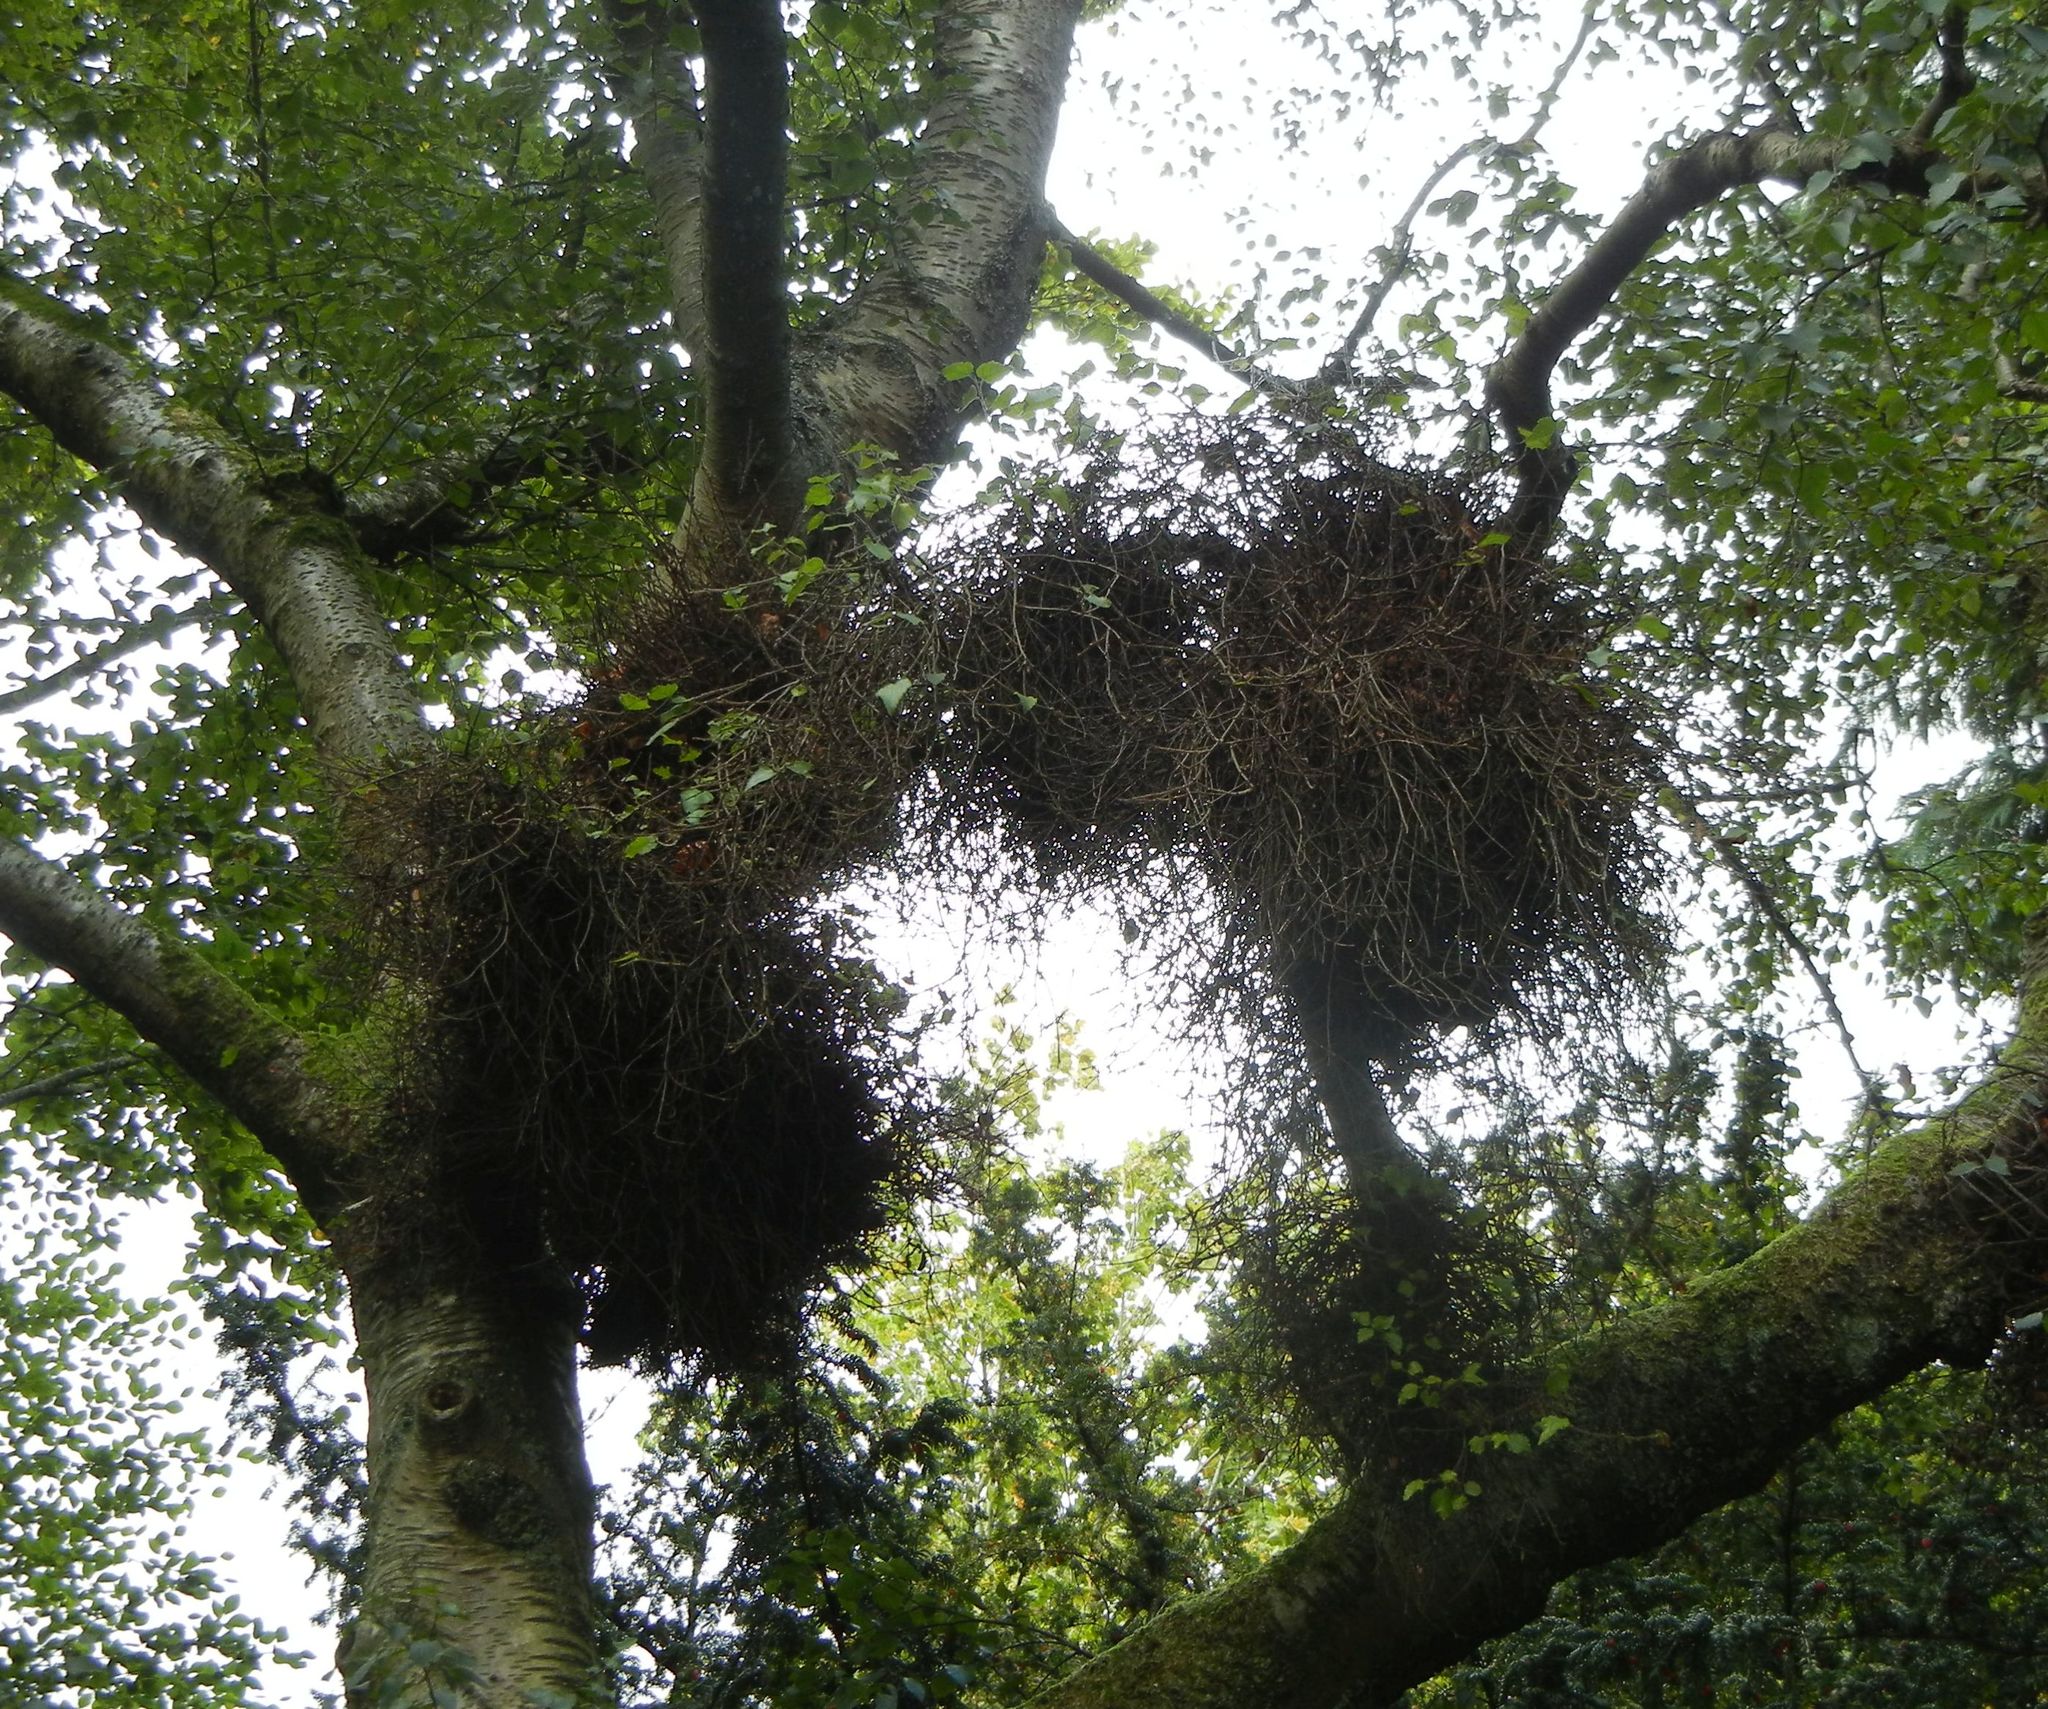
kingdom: Fungi
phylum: Ascomycota
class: Taphrinomycetes
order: Taphrinales
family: Taphrinaceae
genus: Taphrina
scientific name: Taphrina betulina
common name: Birch besom
